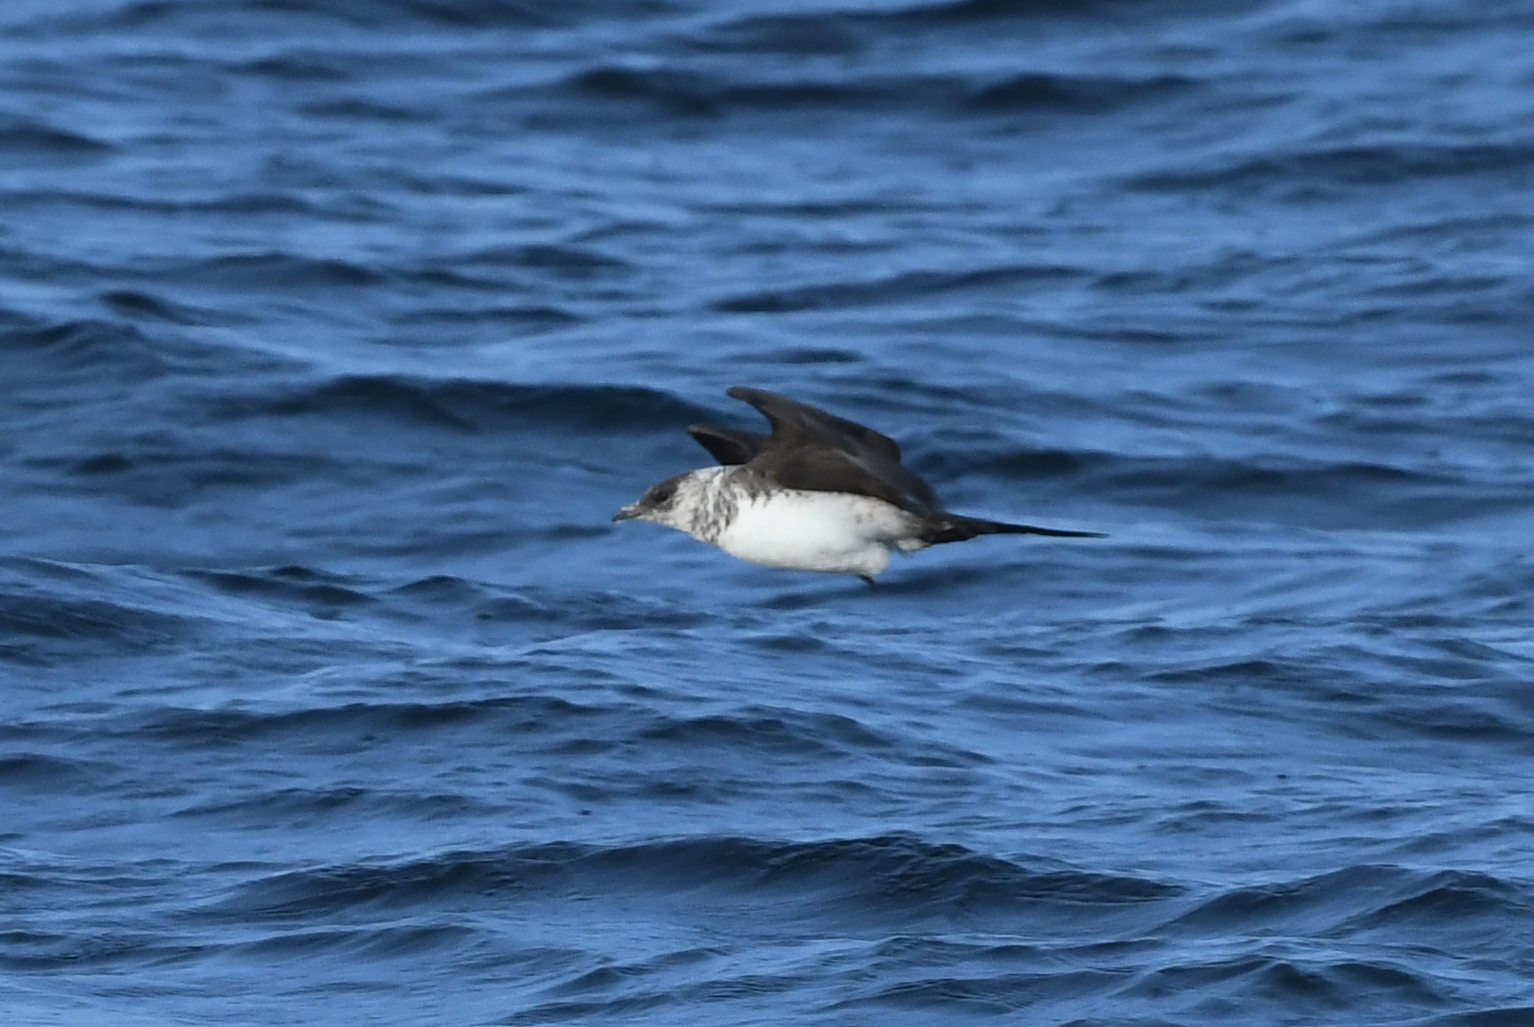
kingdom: Animalia
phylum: Chordata
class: Aves
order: Charadriiformes
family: Stercorariidae
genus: Stercorarius
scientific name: Stercorarius parasiticus
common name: Parasitic jaeger
